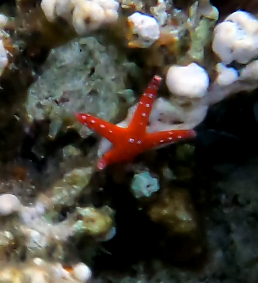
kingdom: Animalia
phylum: Echinodermata
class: Asteroidea
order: Valvatida
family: Goniasteridae
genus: Fromia
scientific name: Fromia ghardaqana
